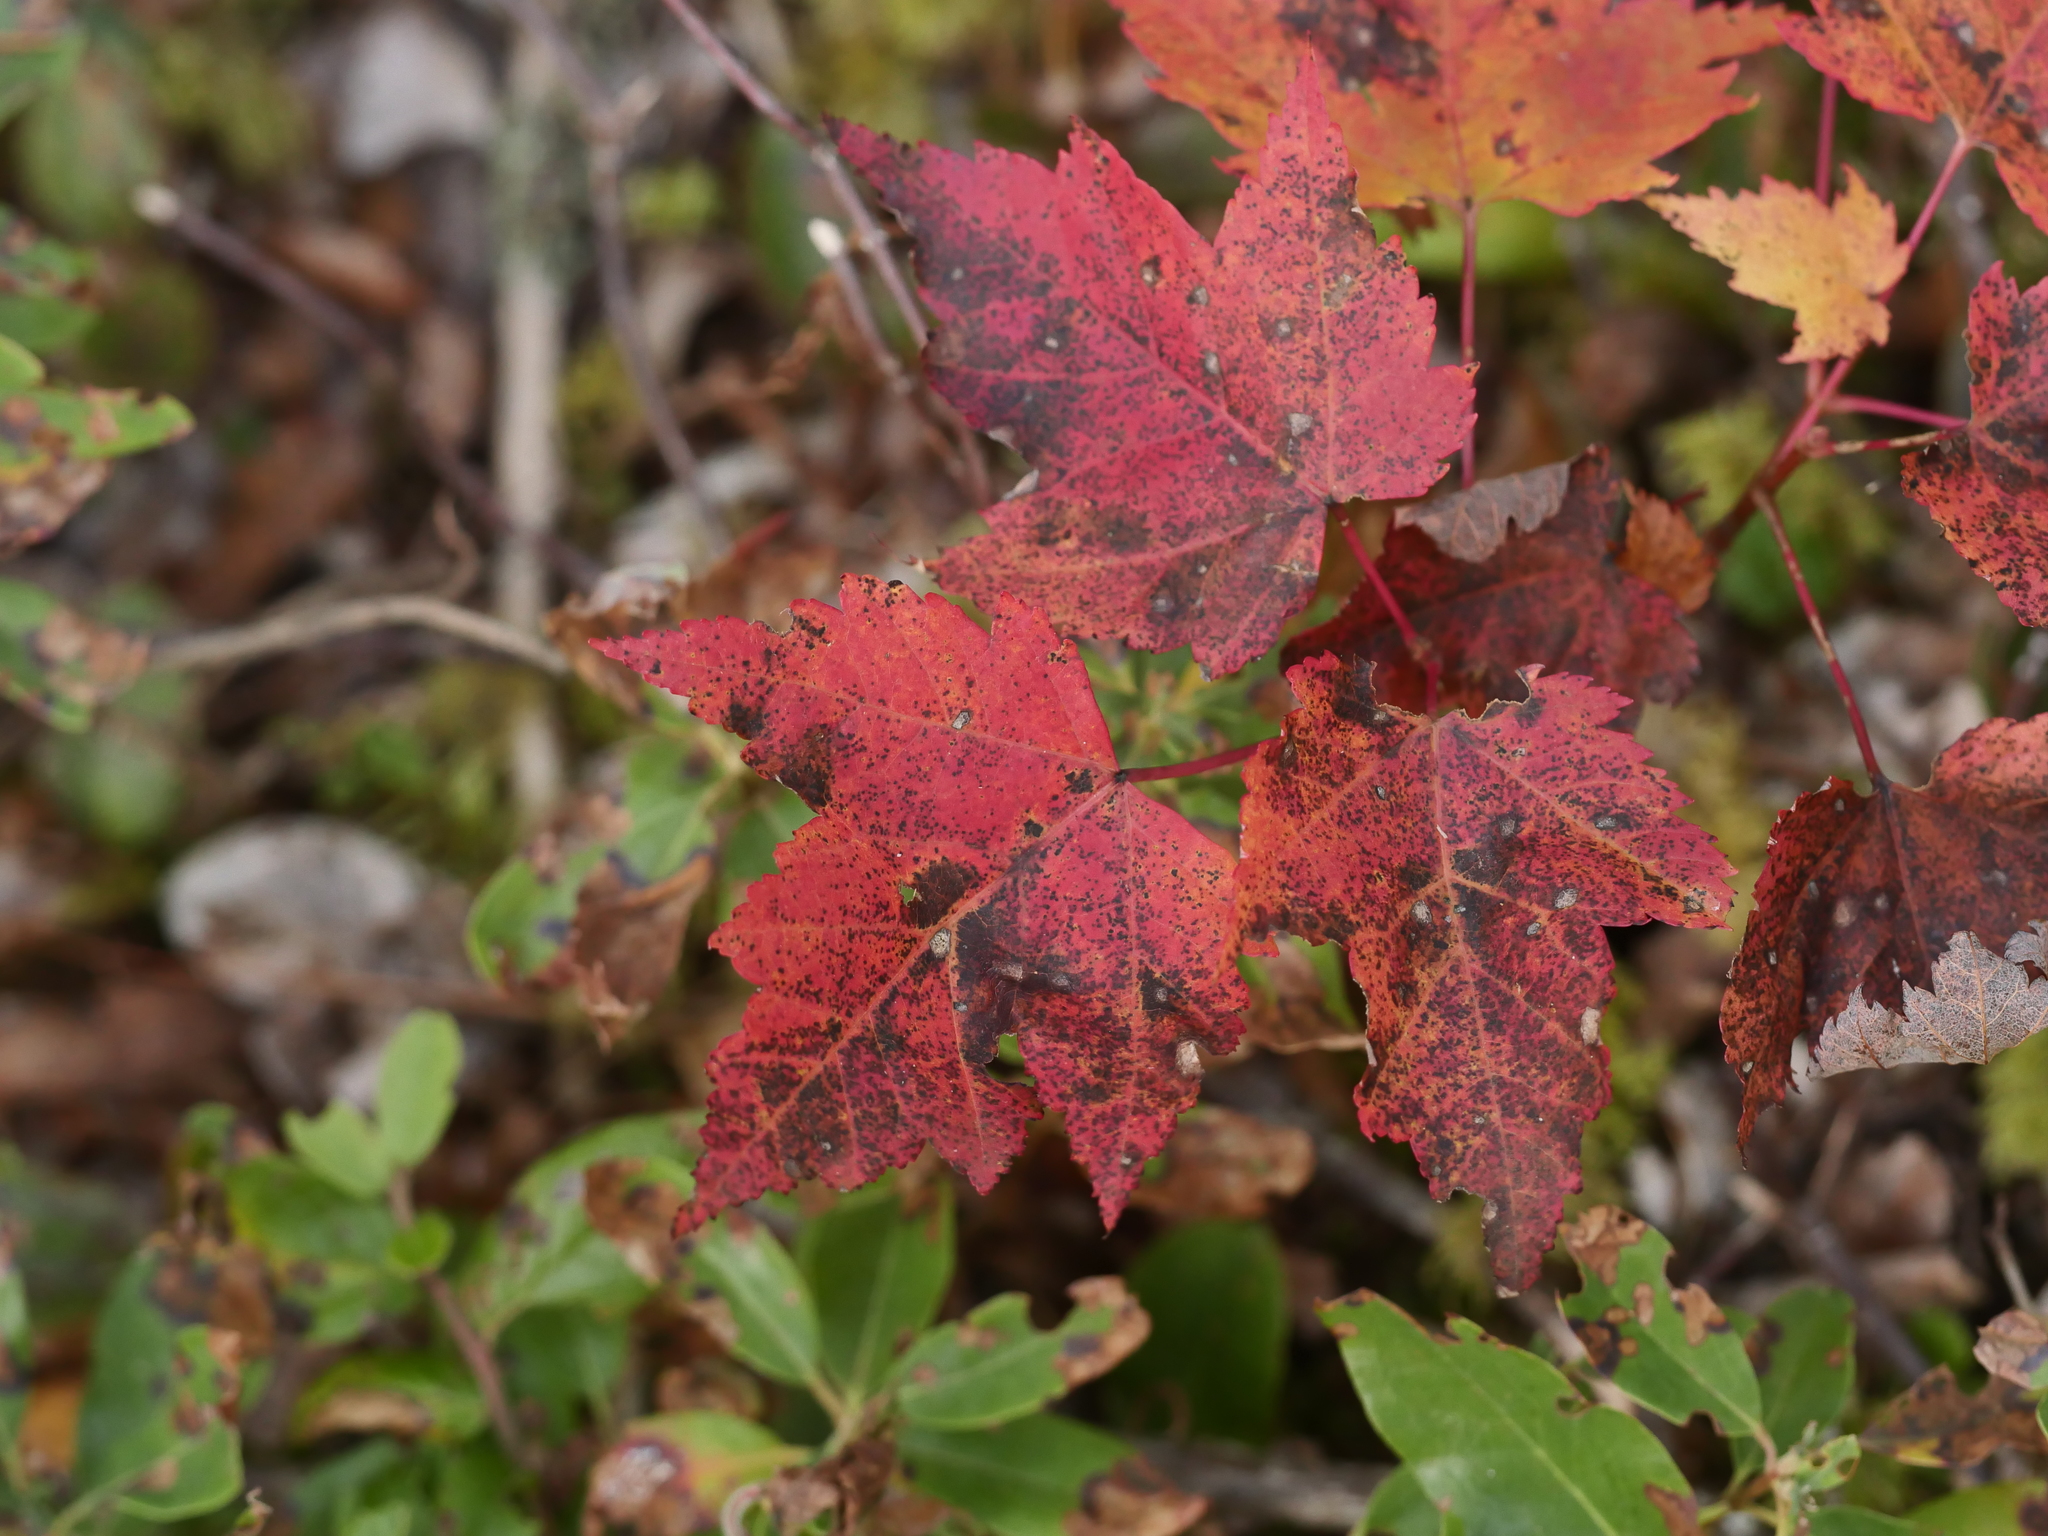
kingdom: Plantae
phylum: Tracheophyta
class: Magnoliopsida
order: Sapindales
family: Sapindaceae
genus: Acer
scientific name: Acer rubrum
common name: Red maple
